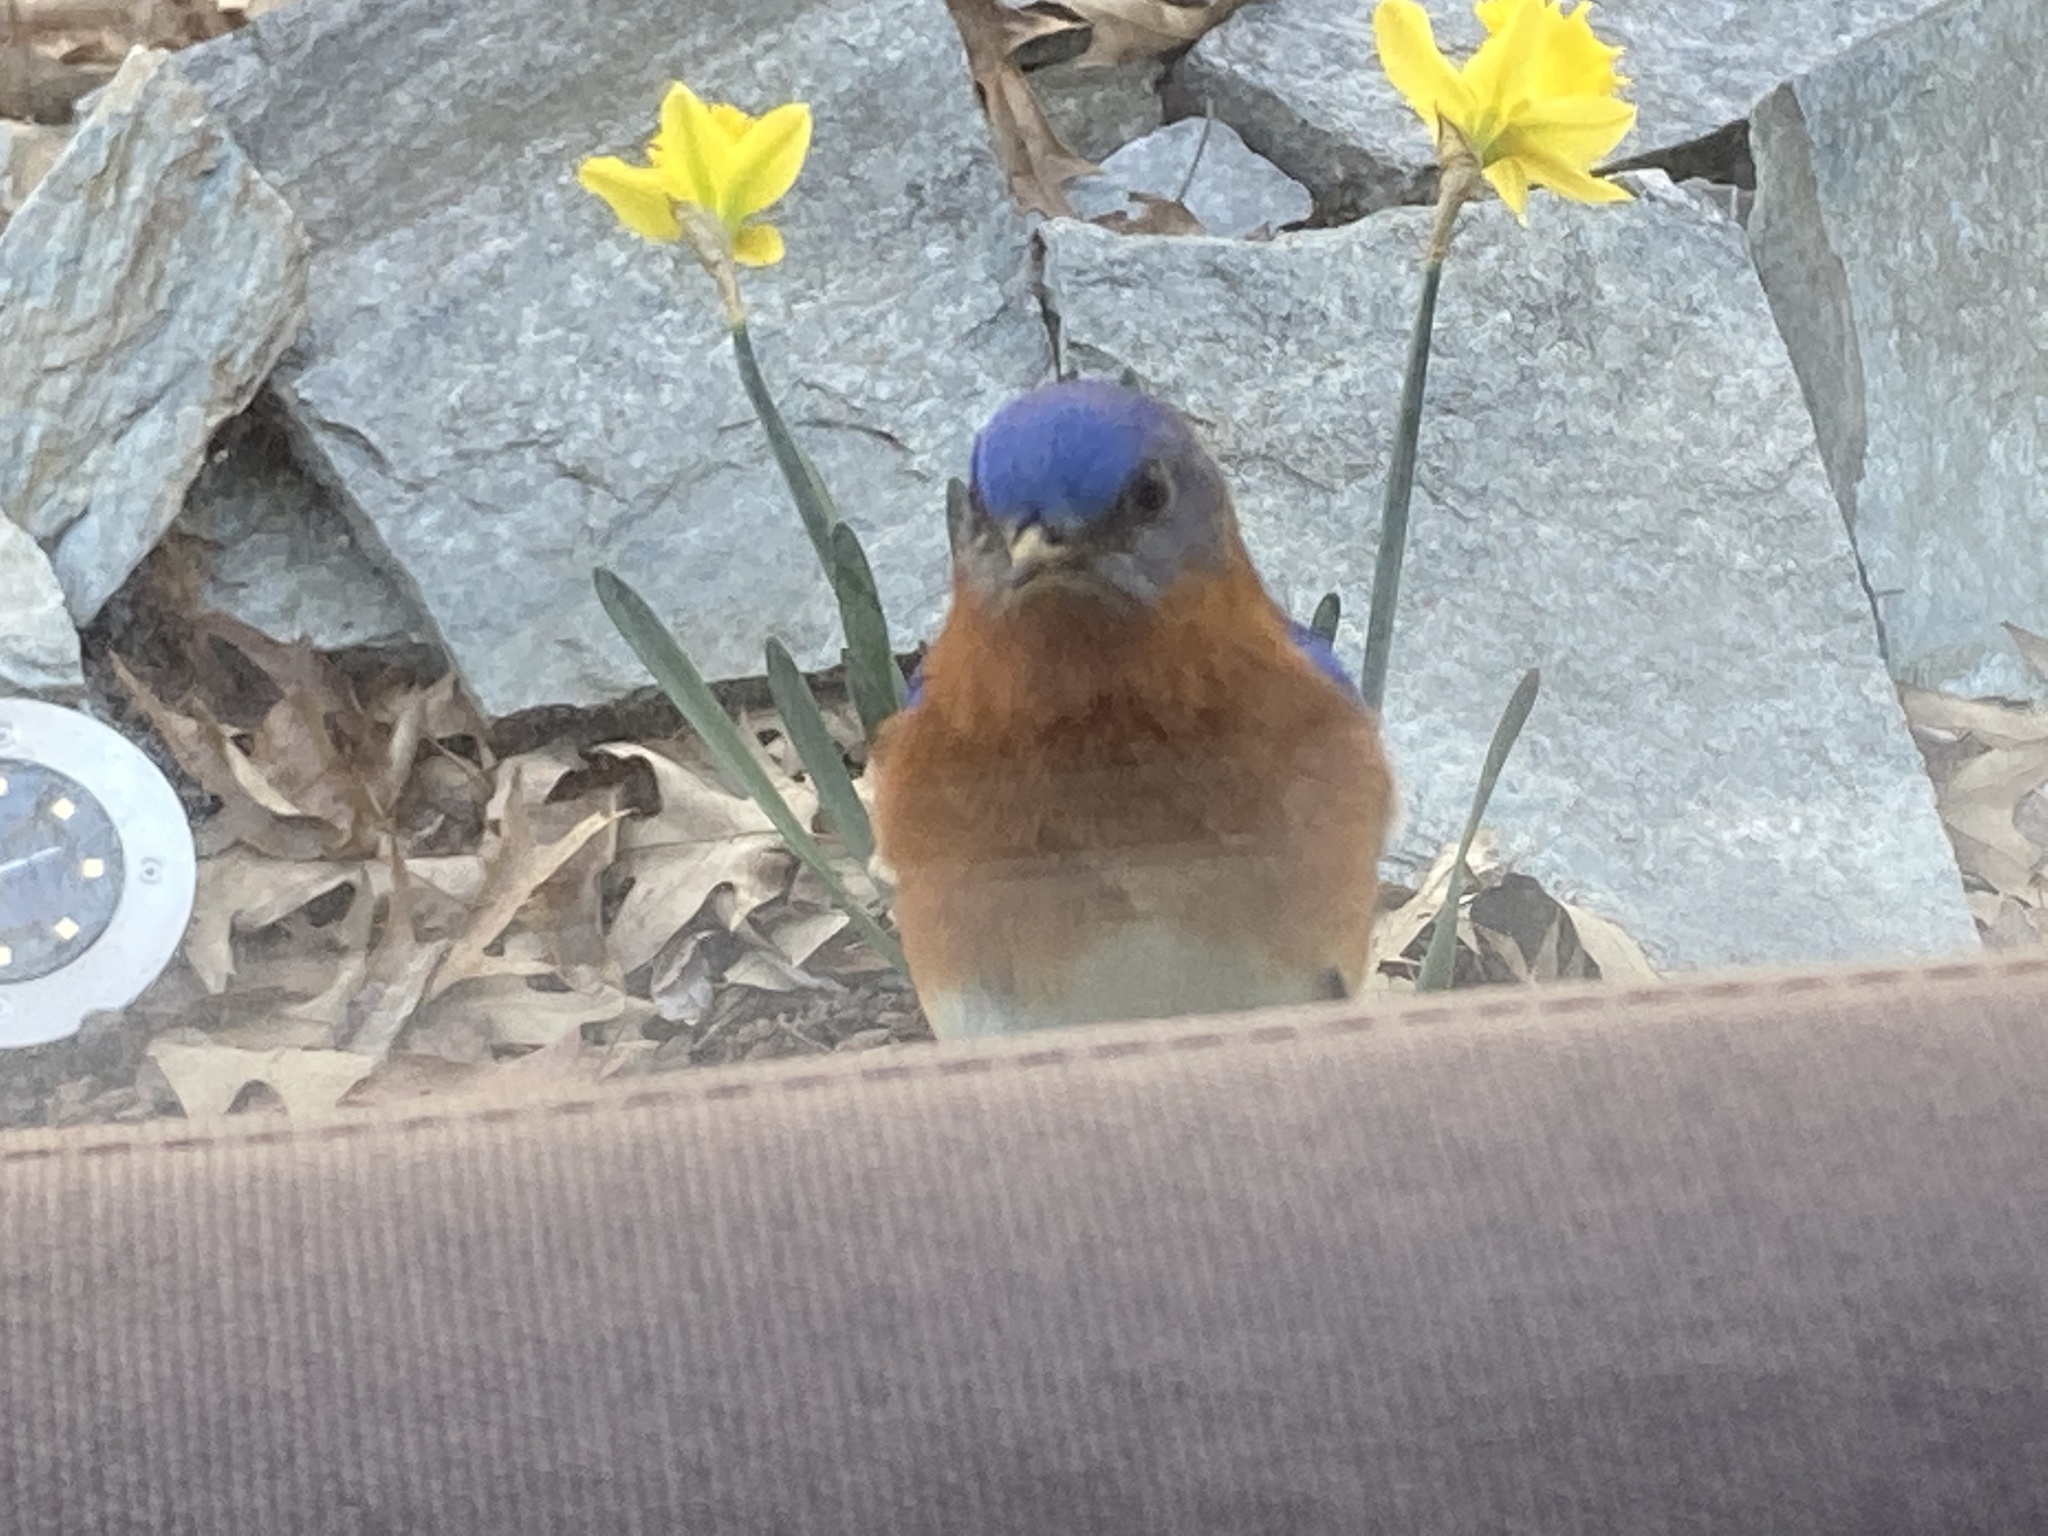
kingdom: Animalia
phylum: Chordata
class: Aves
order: Passeriformes
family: Turdidae
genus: Sialia
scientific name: Sialia sialis
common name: Eastern bluebird
